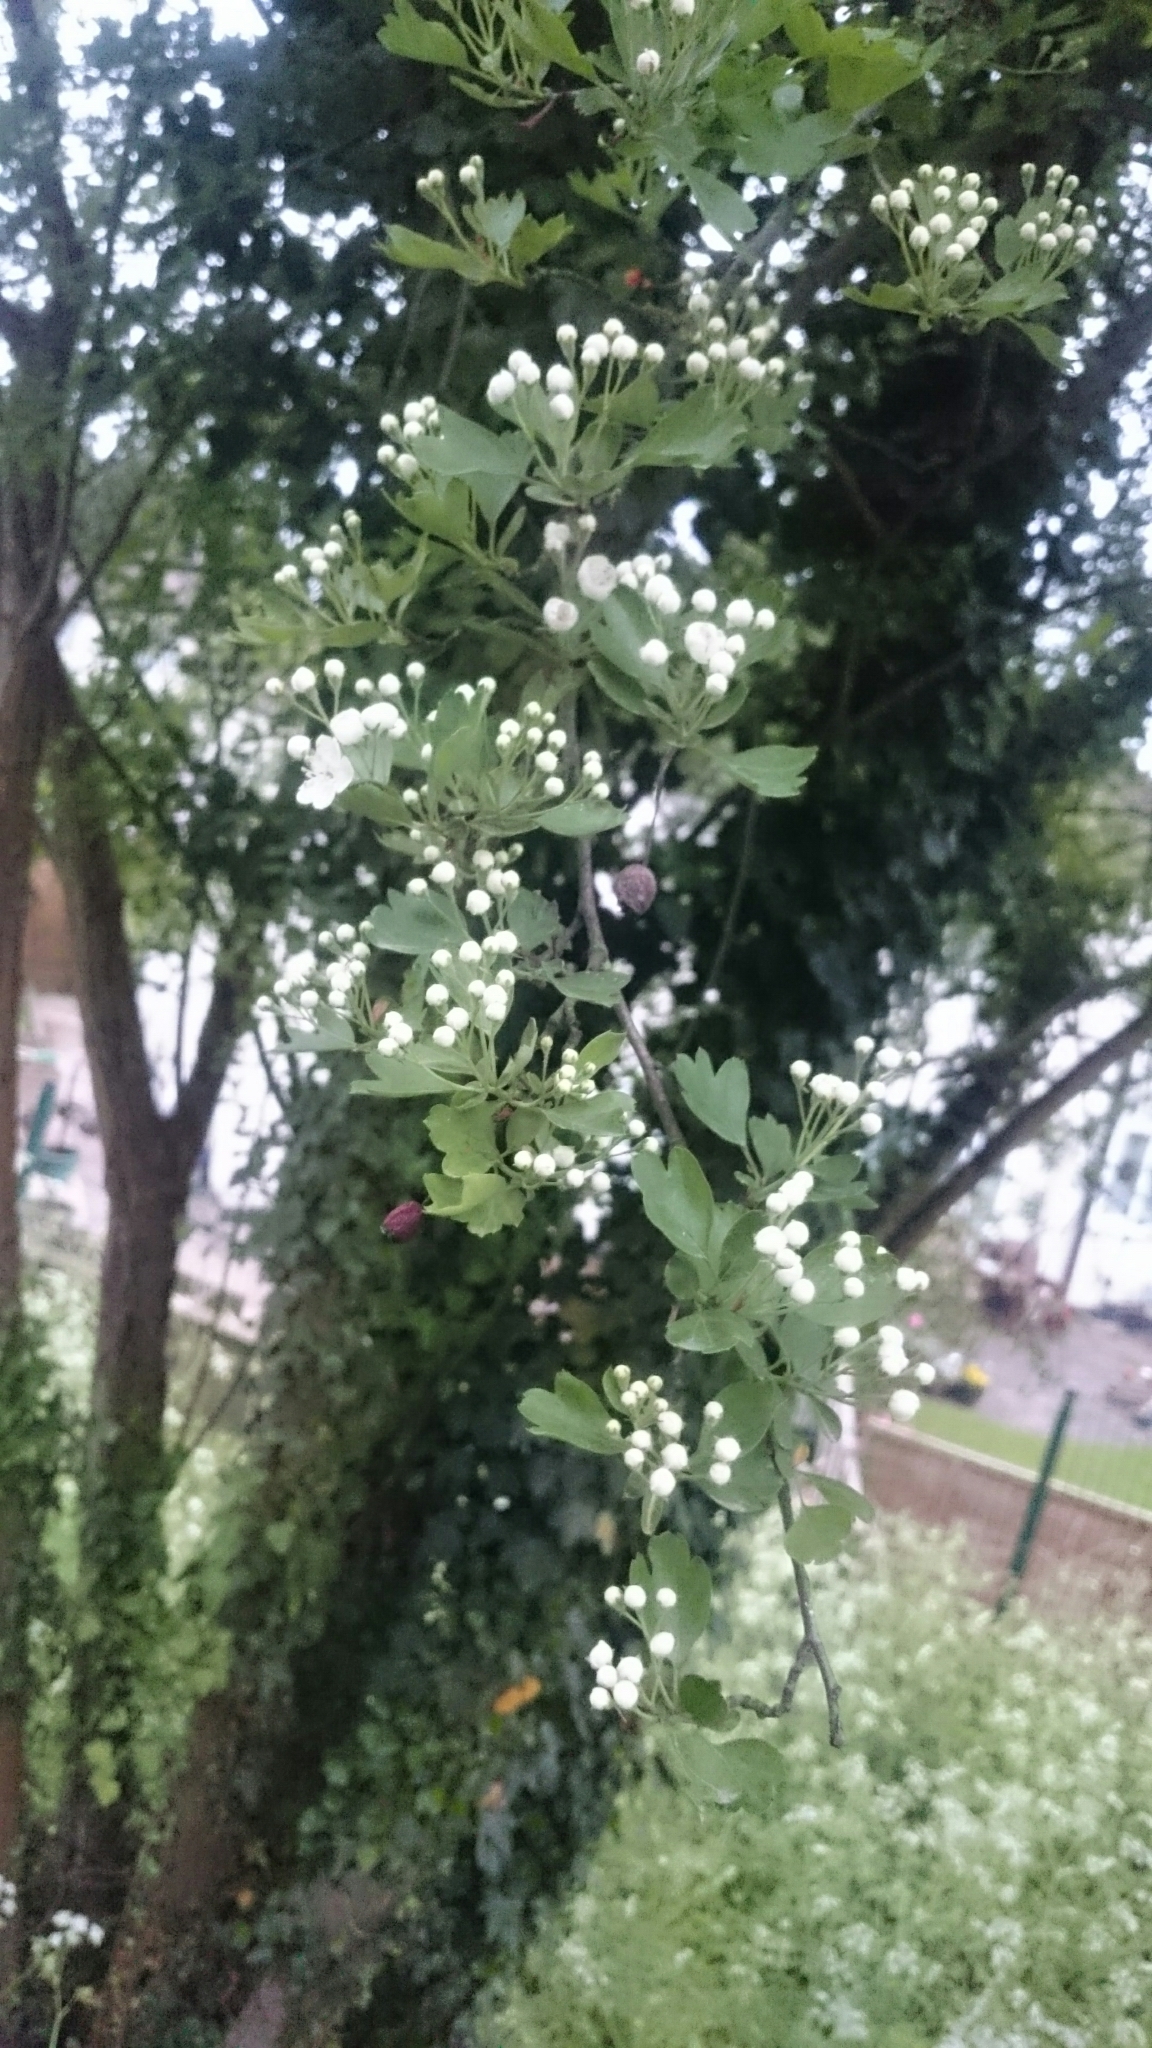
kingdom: Plantae
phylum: Tracheophyta
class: Magnoliopsida
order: Rosales
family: Rosaceae
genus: Crataegus
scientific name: Crataegus monogyna
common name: Hawthorn
